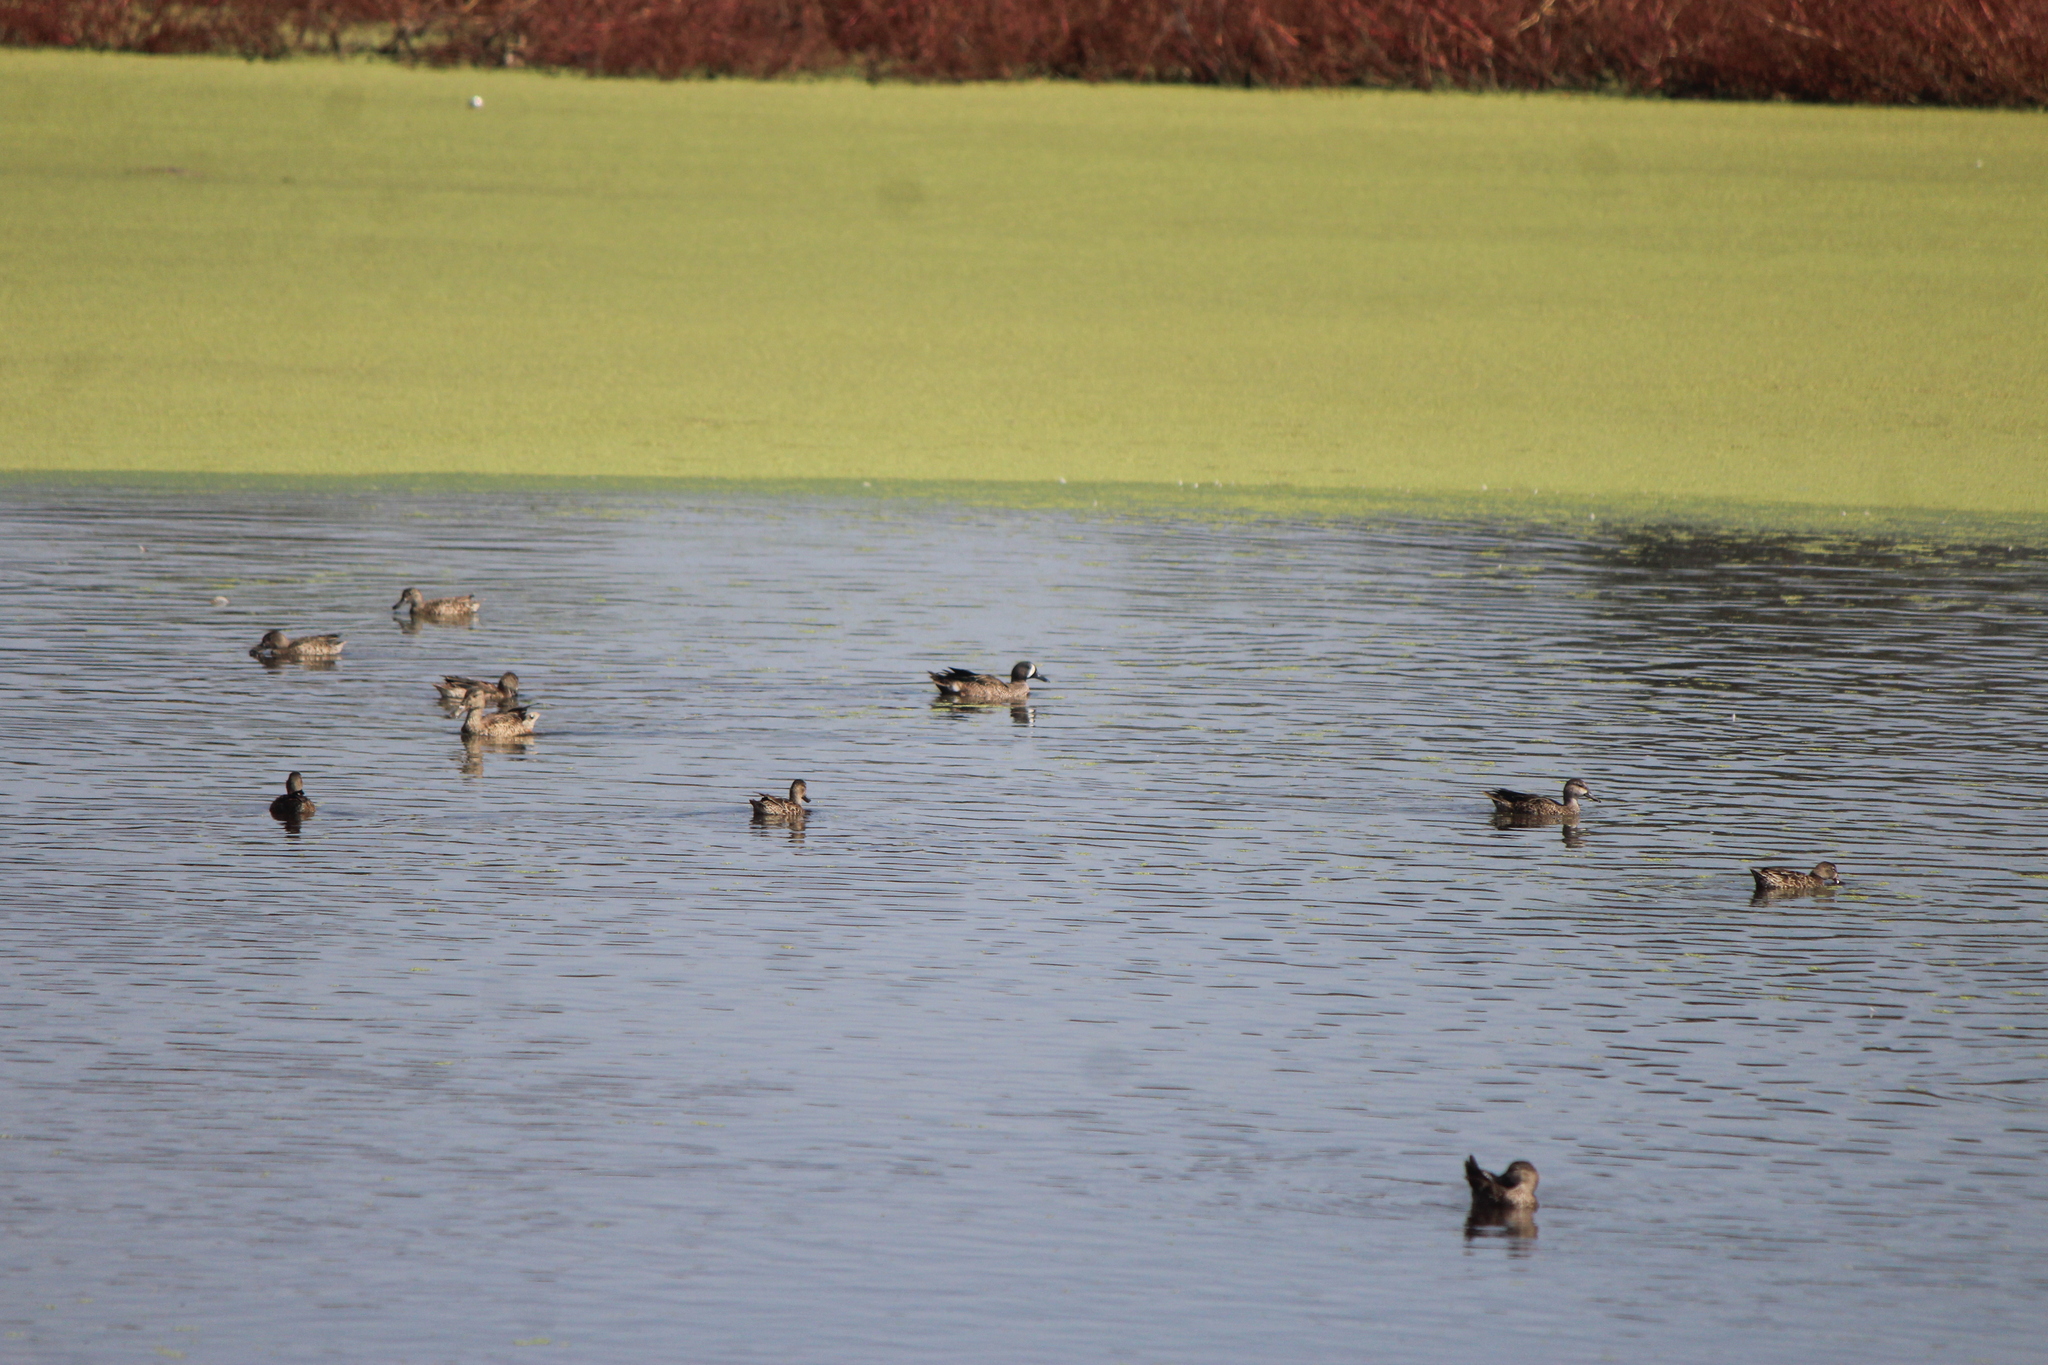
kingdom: Animalia
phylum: Chordata
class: Aves
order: Anseriformes
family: Anatidae
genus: Spatula
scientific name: Spatula discors
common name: Blue-winged teal
